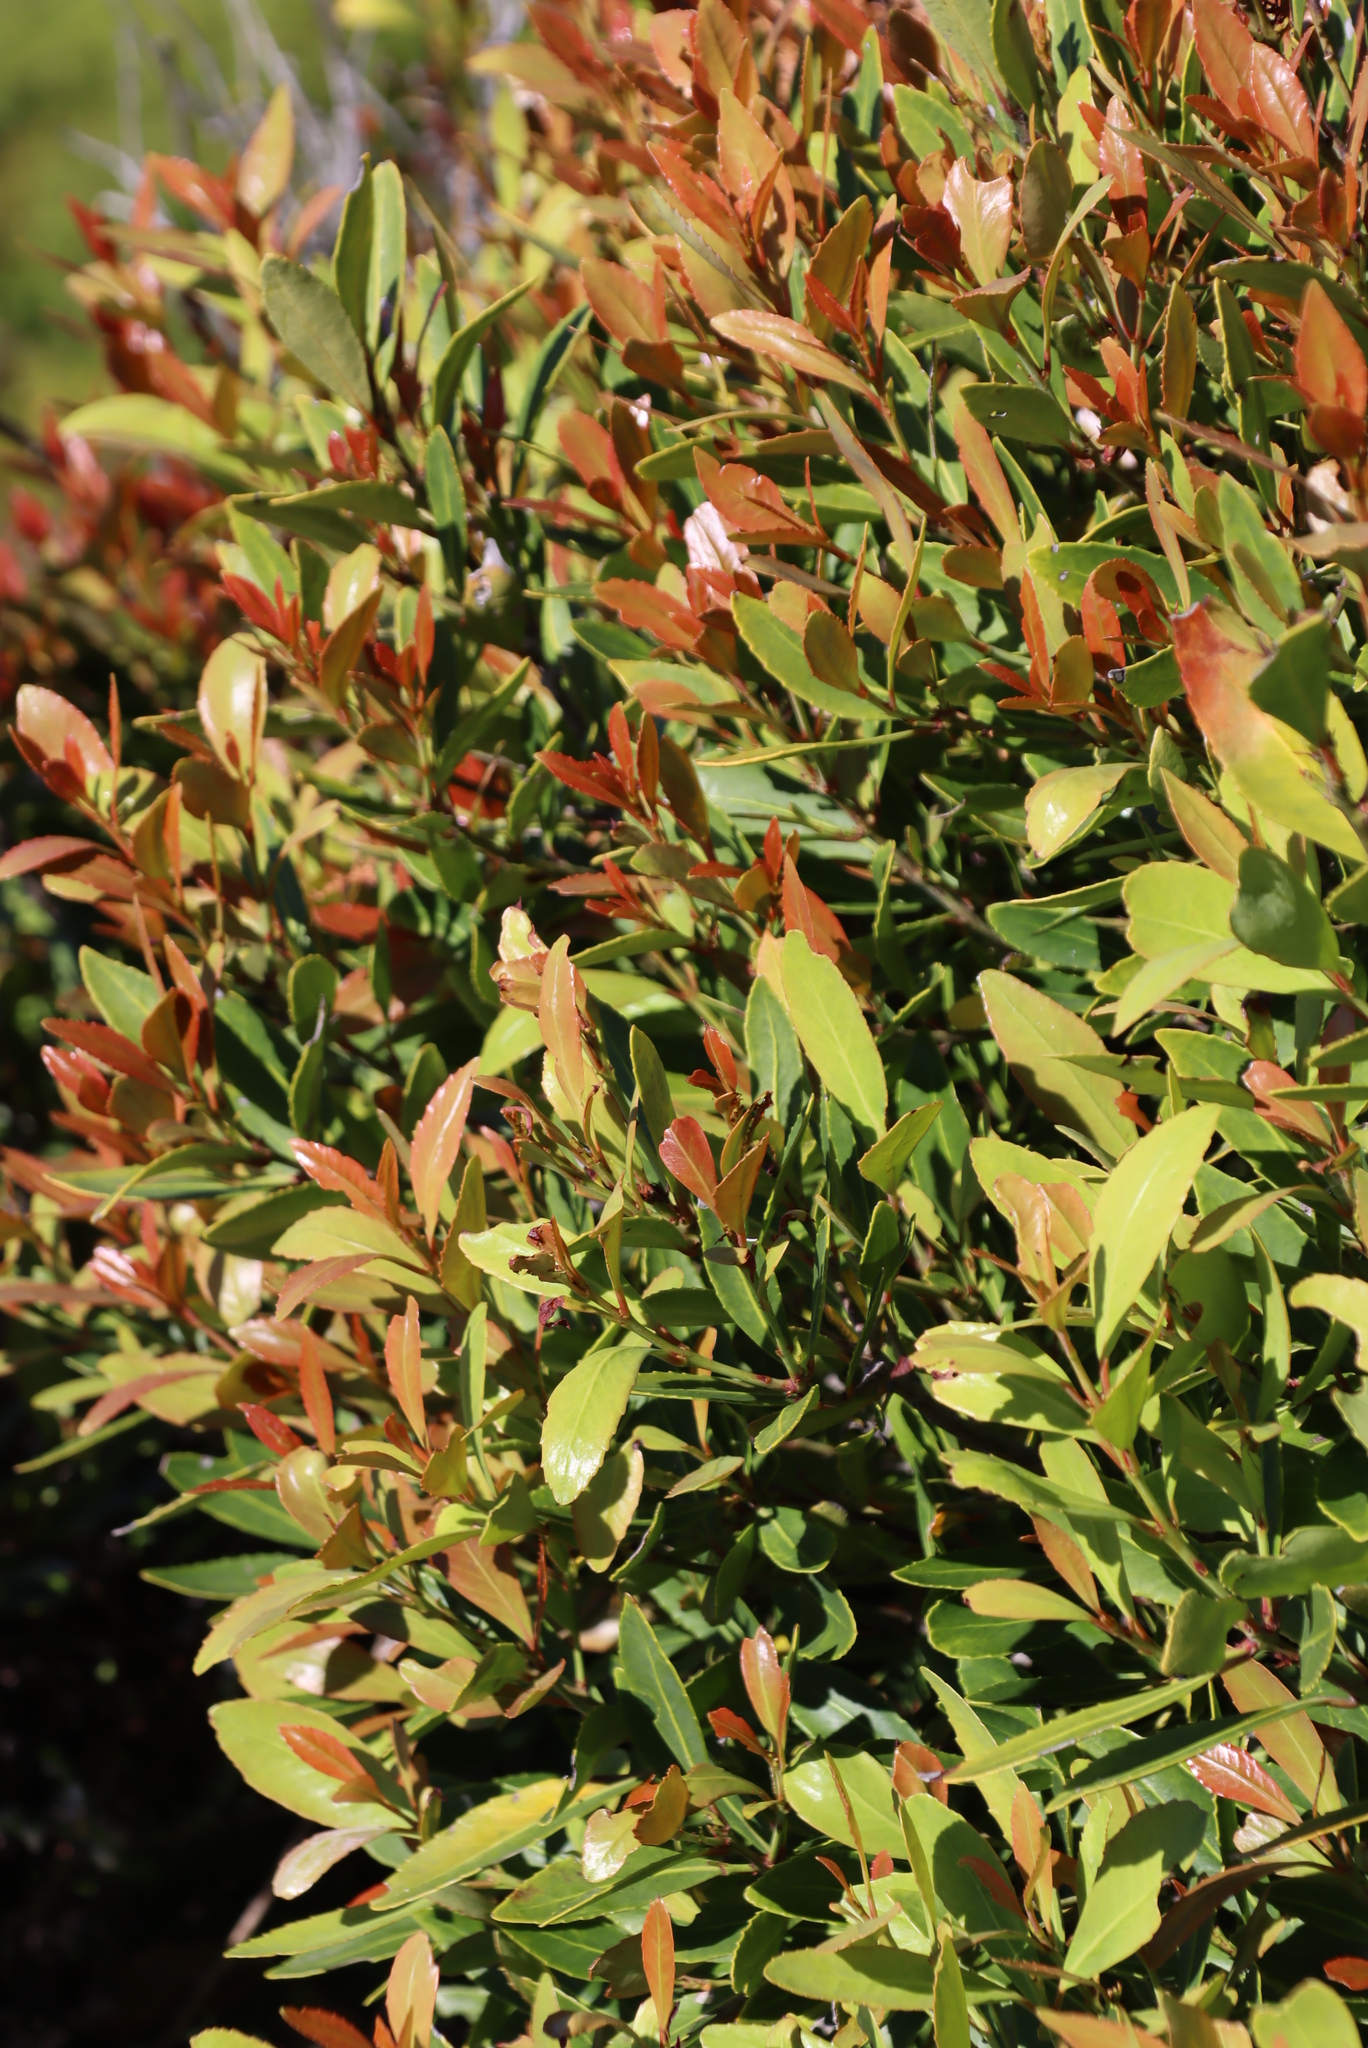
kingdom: Plantae
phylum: Tracheophyta
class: Magnoliopsida
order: Celastrales
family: Celastraceae
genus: Elaeodendron
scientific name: Elaeodendron schinoides
